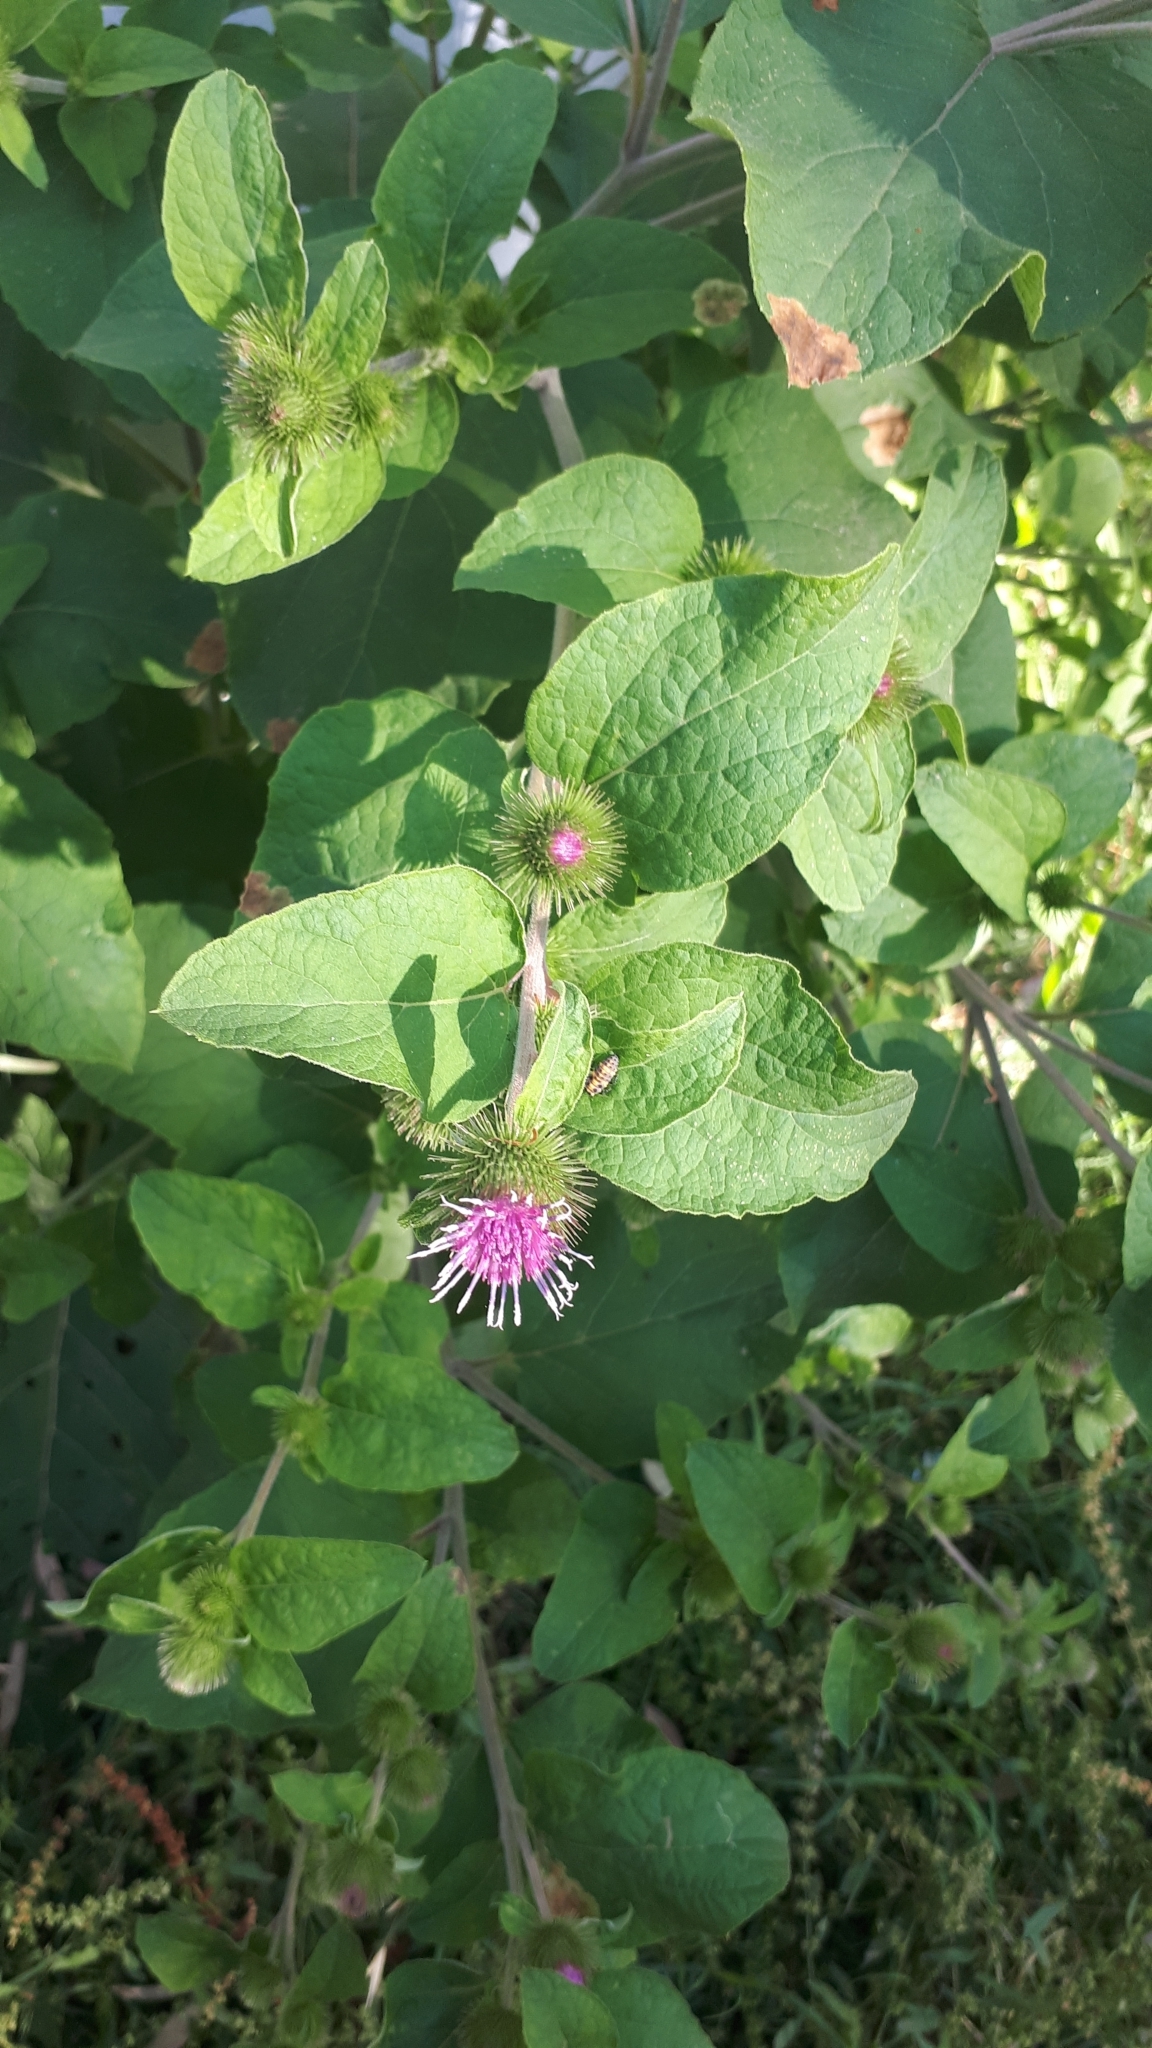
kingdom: Plantae
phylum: Tracheophyta
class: Magnoliopsida
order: Asterales
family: Asteraceae
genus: Arctium
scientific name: Arctium lappa
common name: Greater burdock
